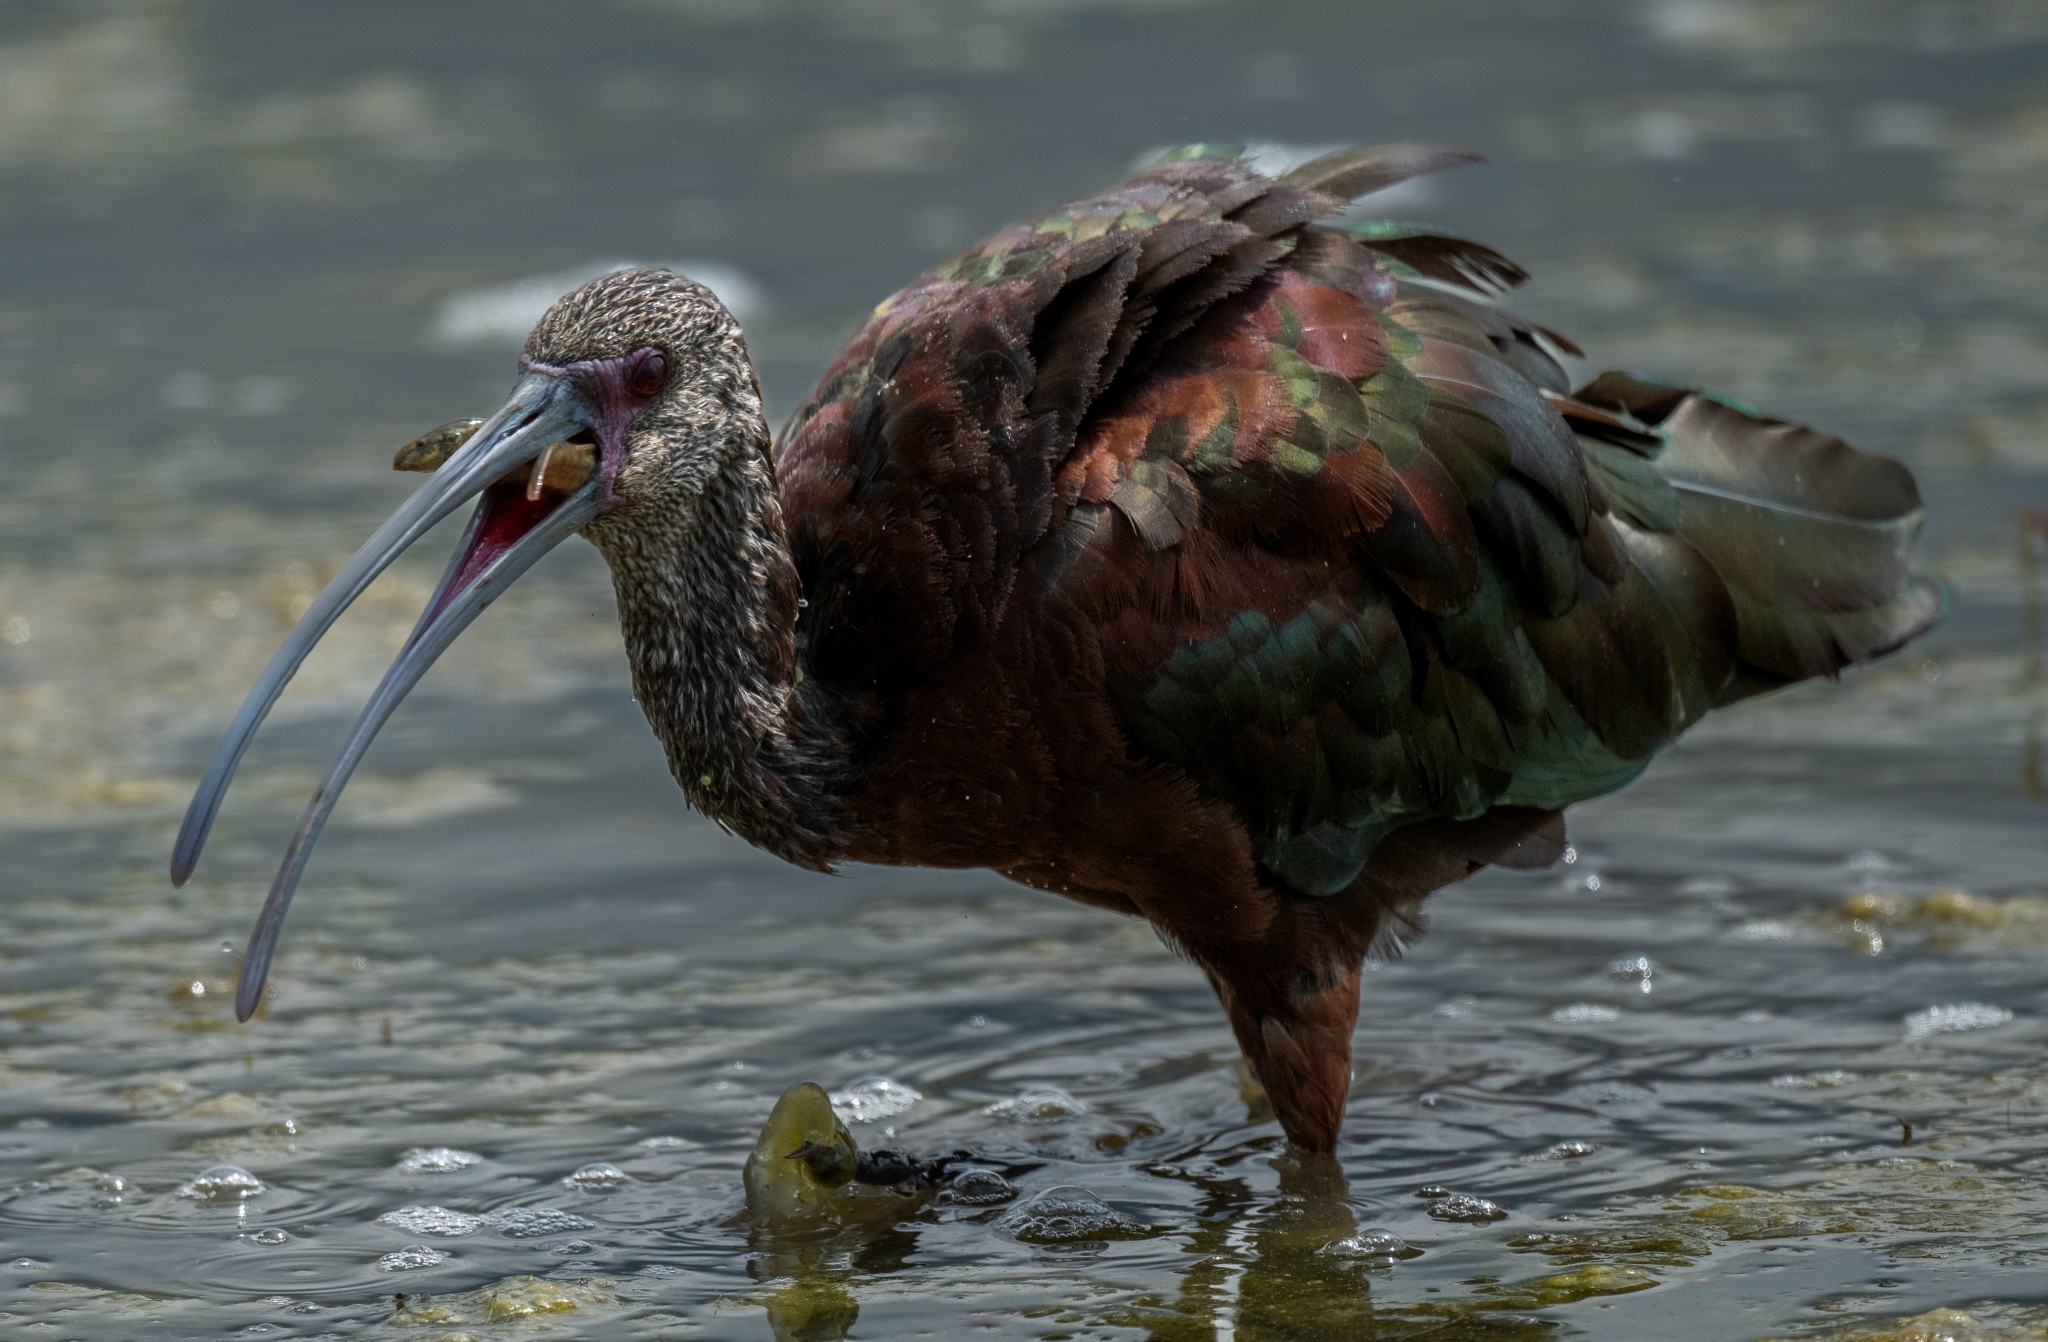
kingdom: Animalia
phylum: Chordata
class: Aves
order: Pelecaniformes
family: Threskiornithidae
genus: Plegadis
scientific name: Plegadis chihi
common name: White-faced ibis
